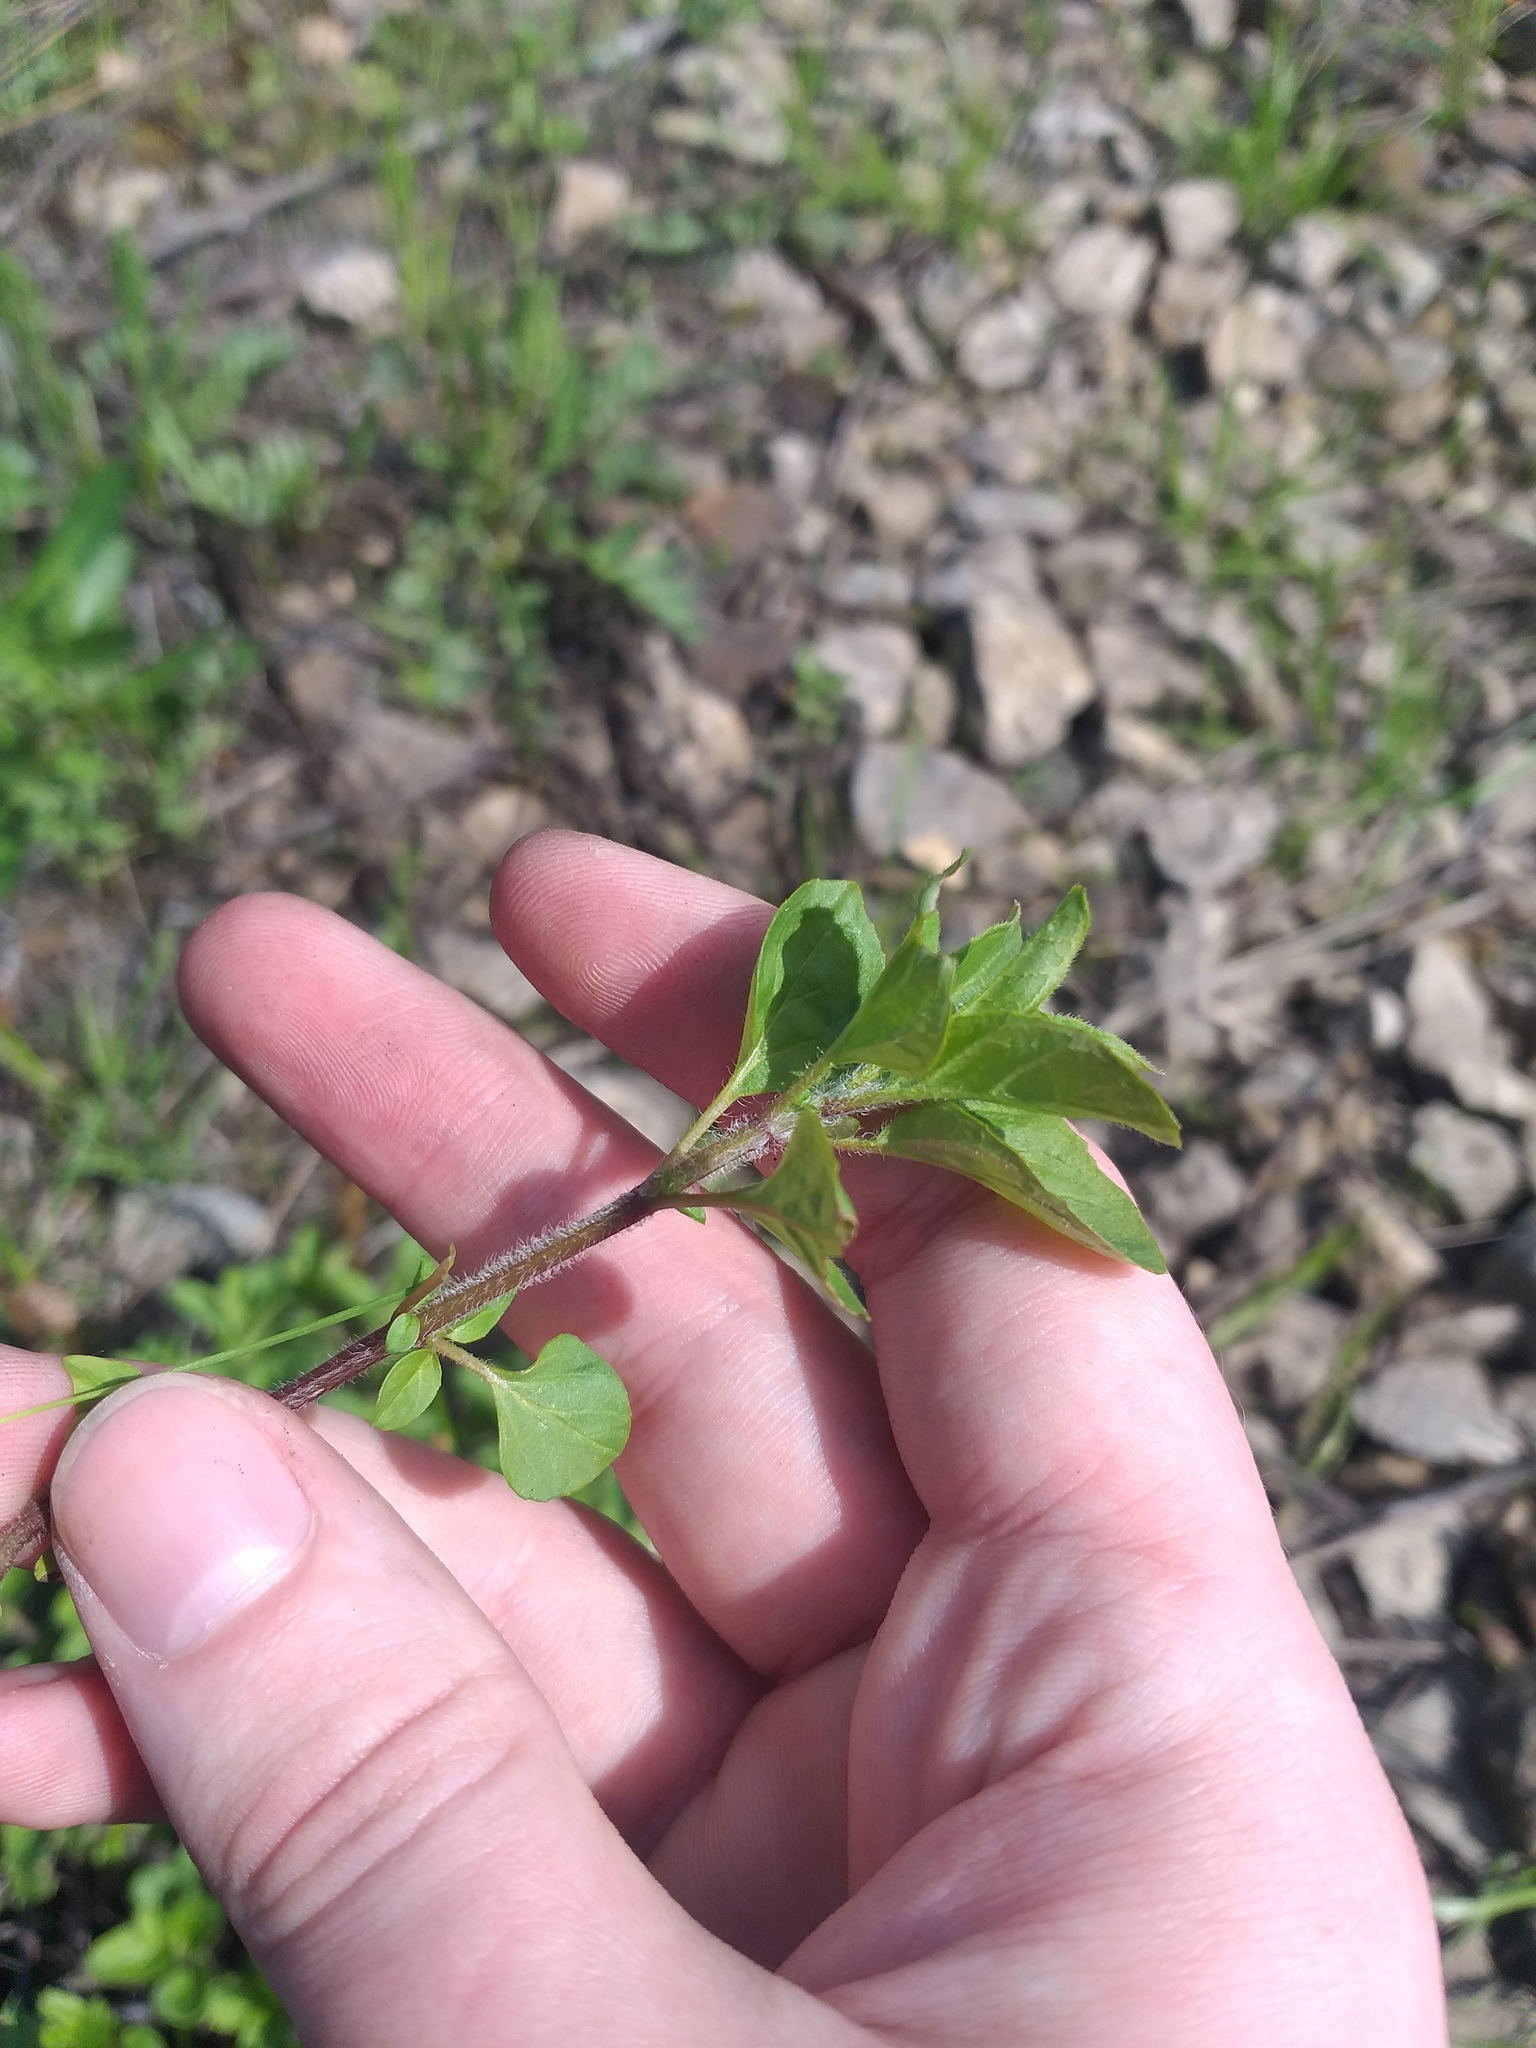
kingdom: Plantae
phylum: Tracheophyta
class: Magnoliopsida
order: Lamiales
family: Lamiaceae
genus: Origanum
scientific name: Origanum vulgare
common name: Wild marjoram
